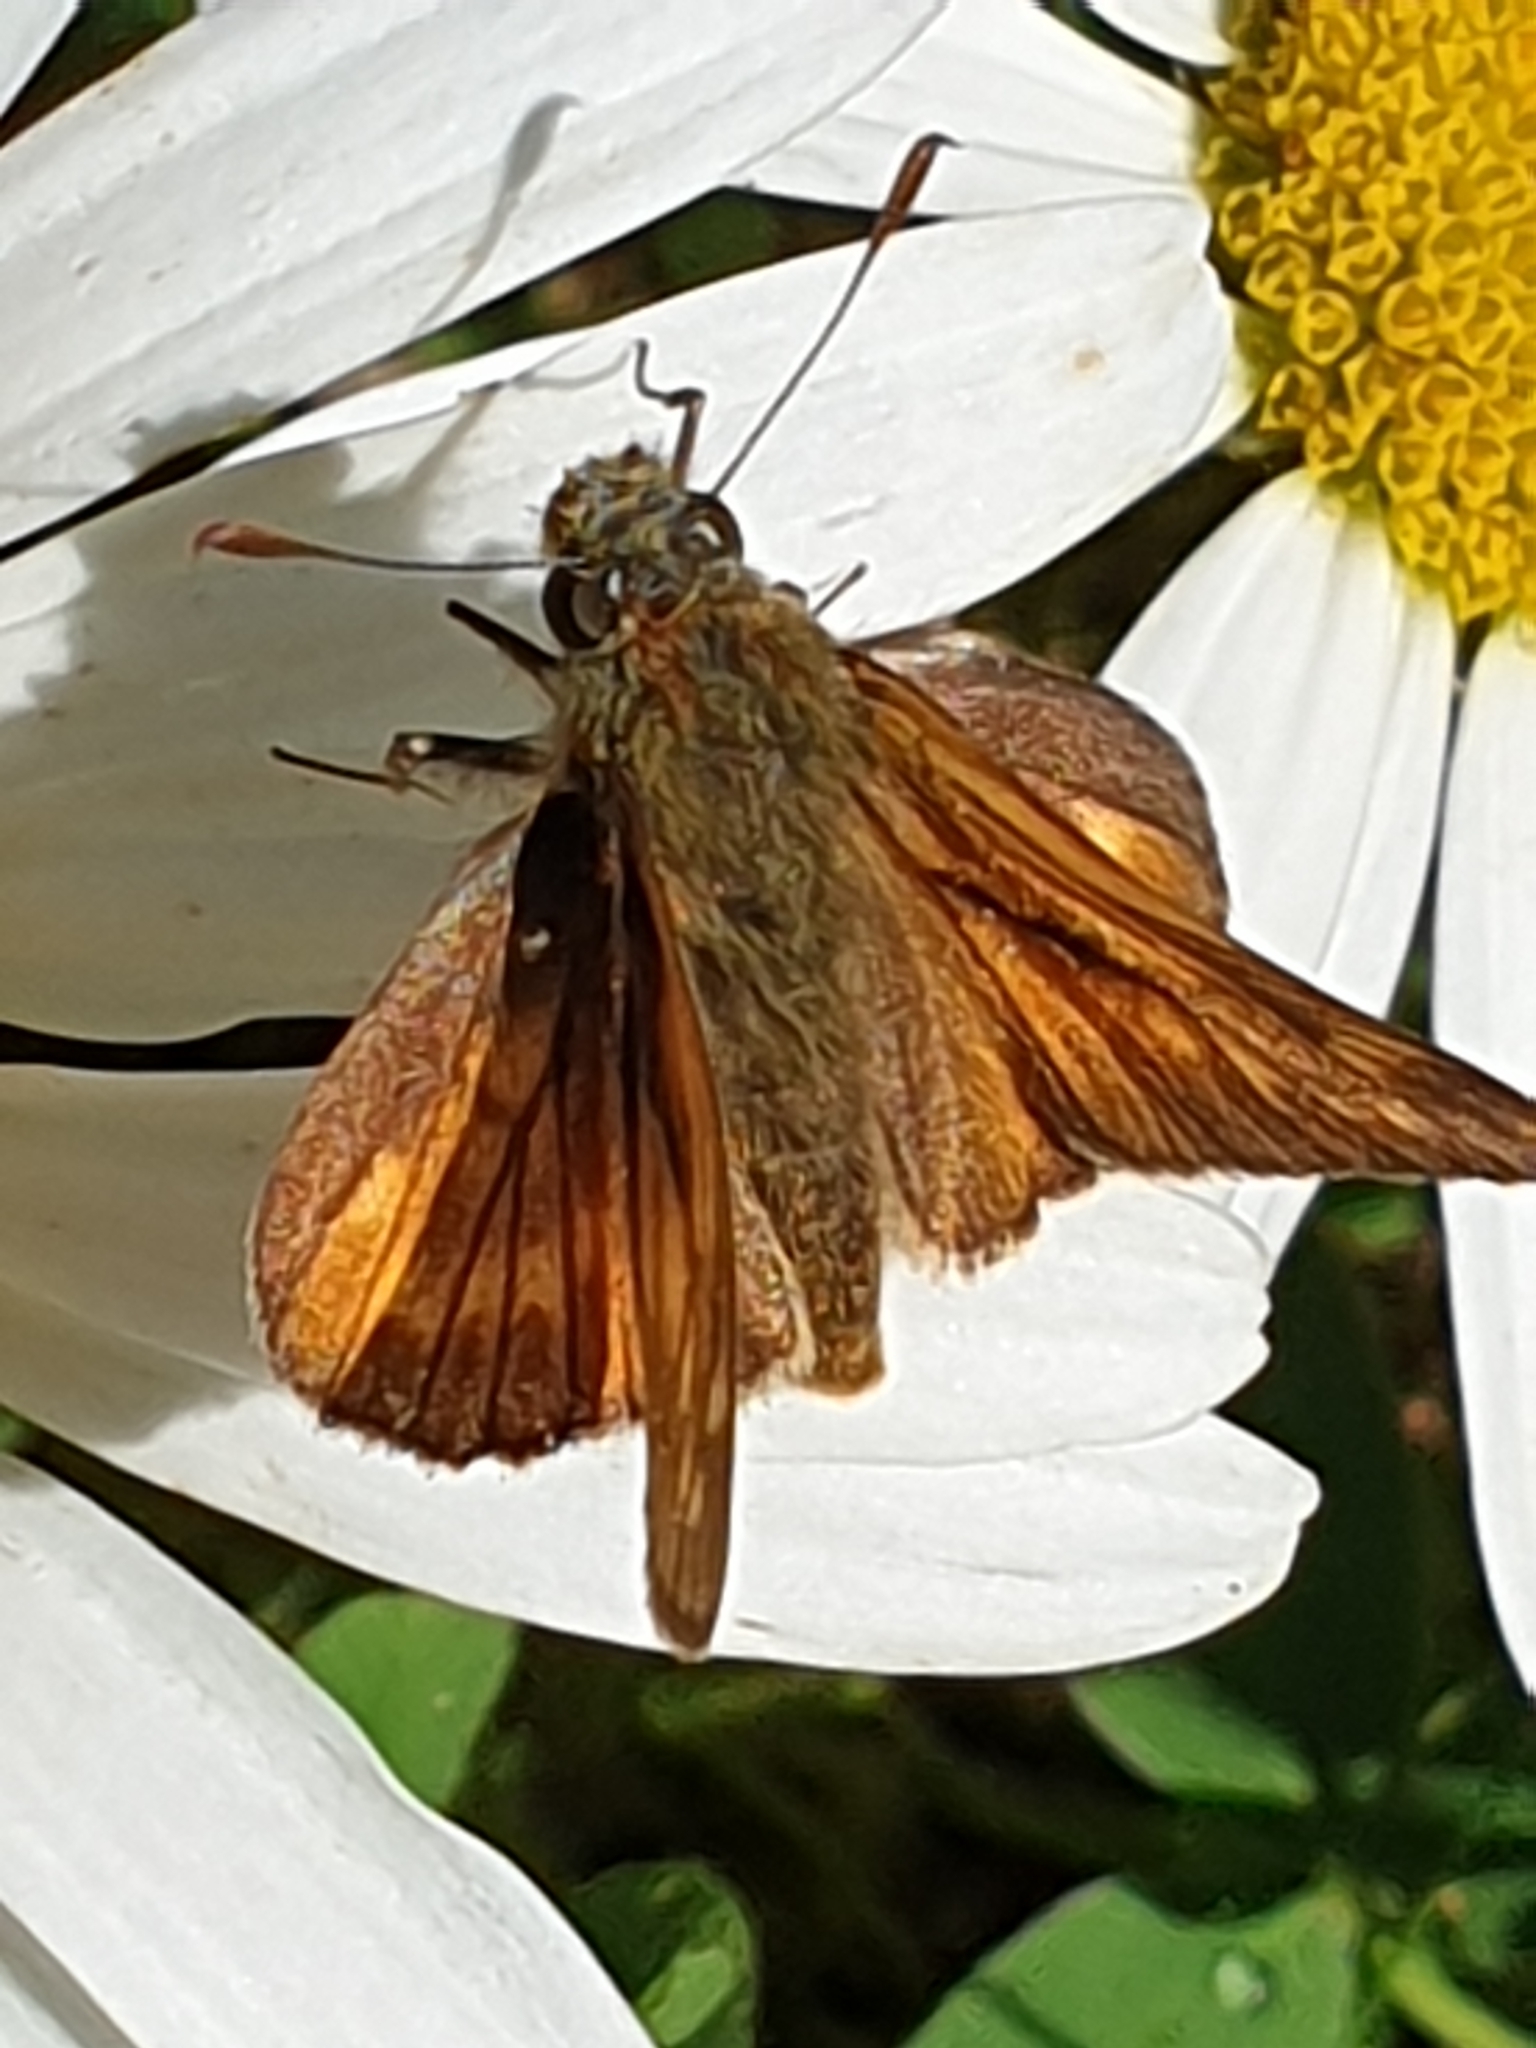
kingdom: Animalia
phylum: Arthropoda
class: Insecta
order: Lepidoptera
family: Hesperiidae
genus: Ochlodes
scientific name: Ochlodes venata
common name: Large skipper
